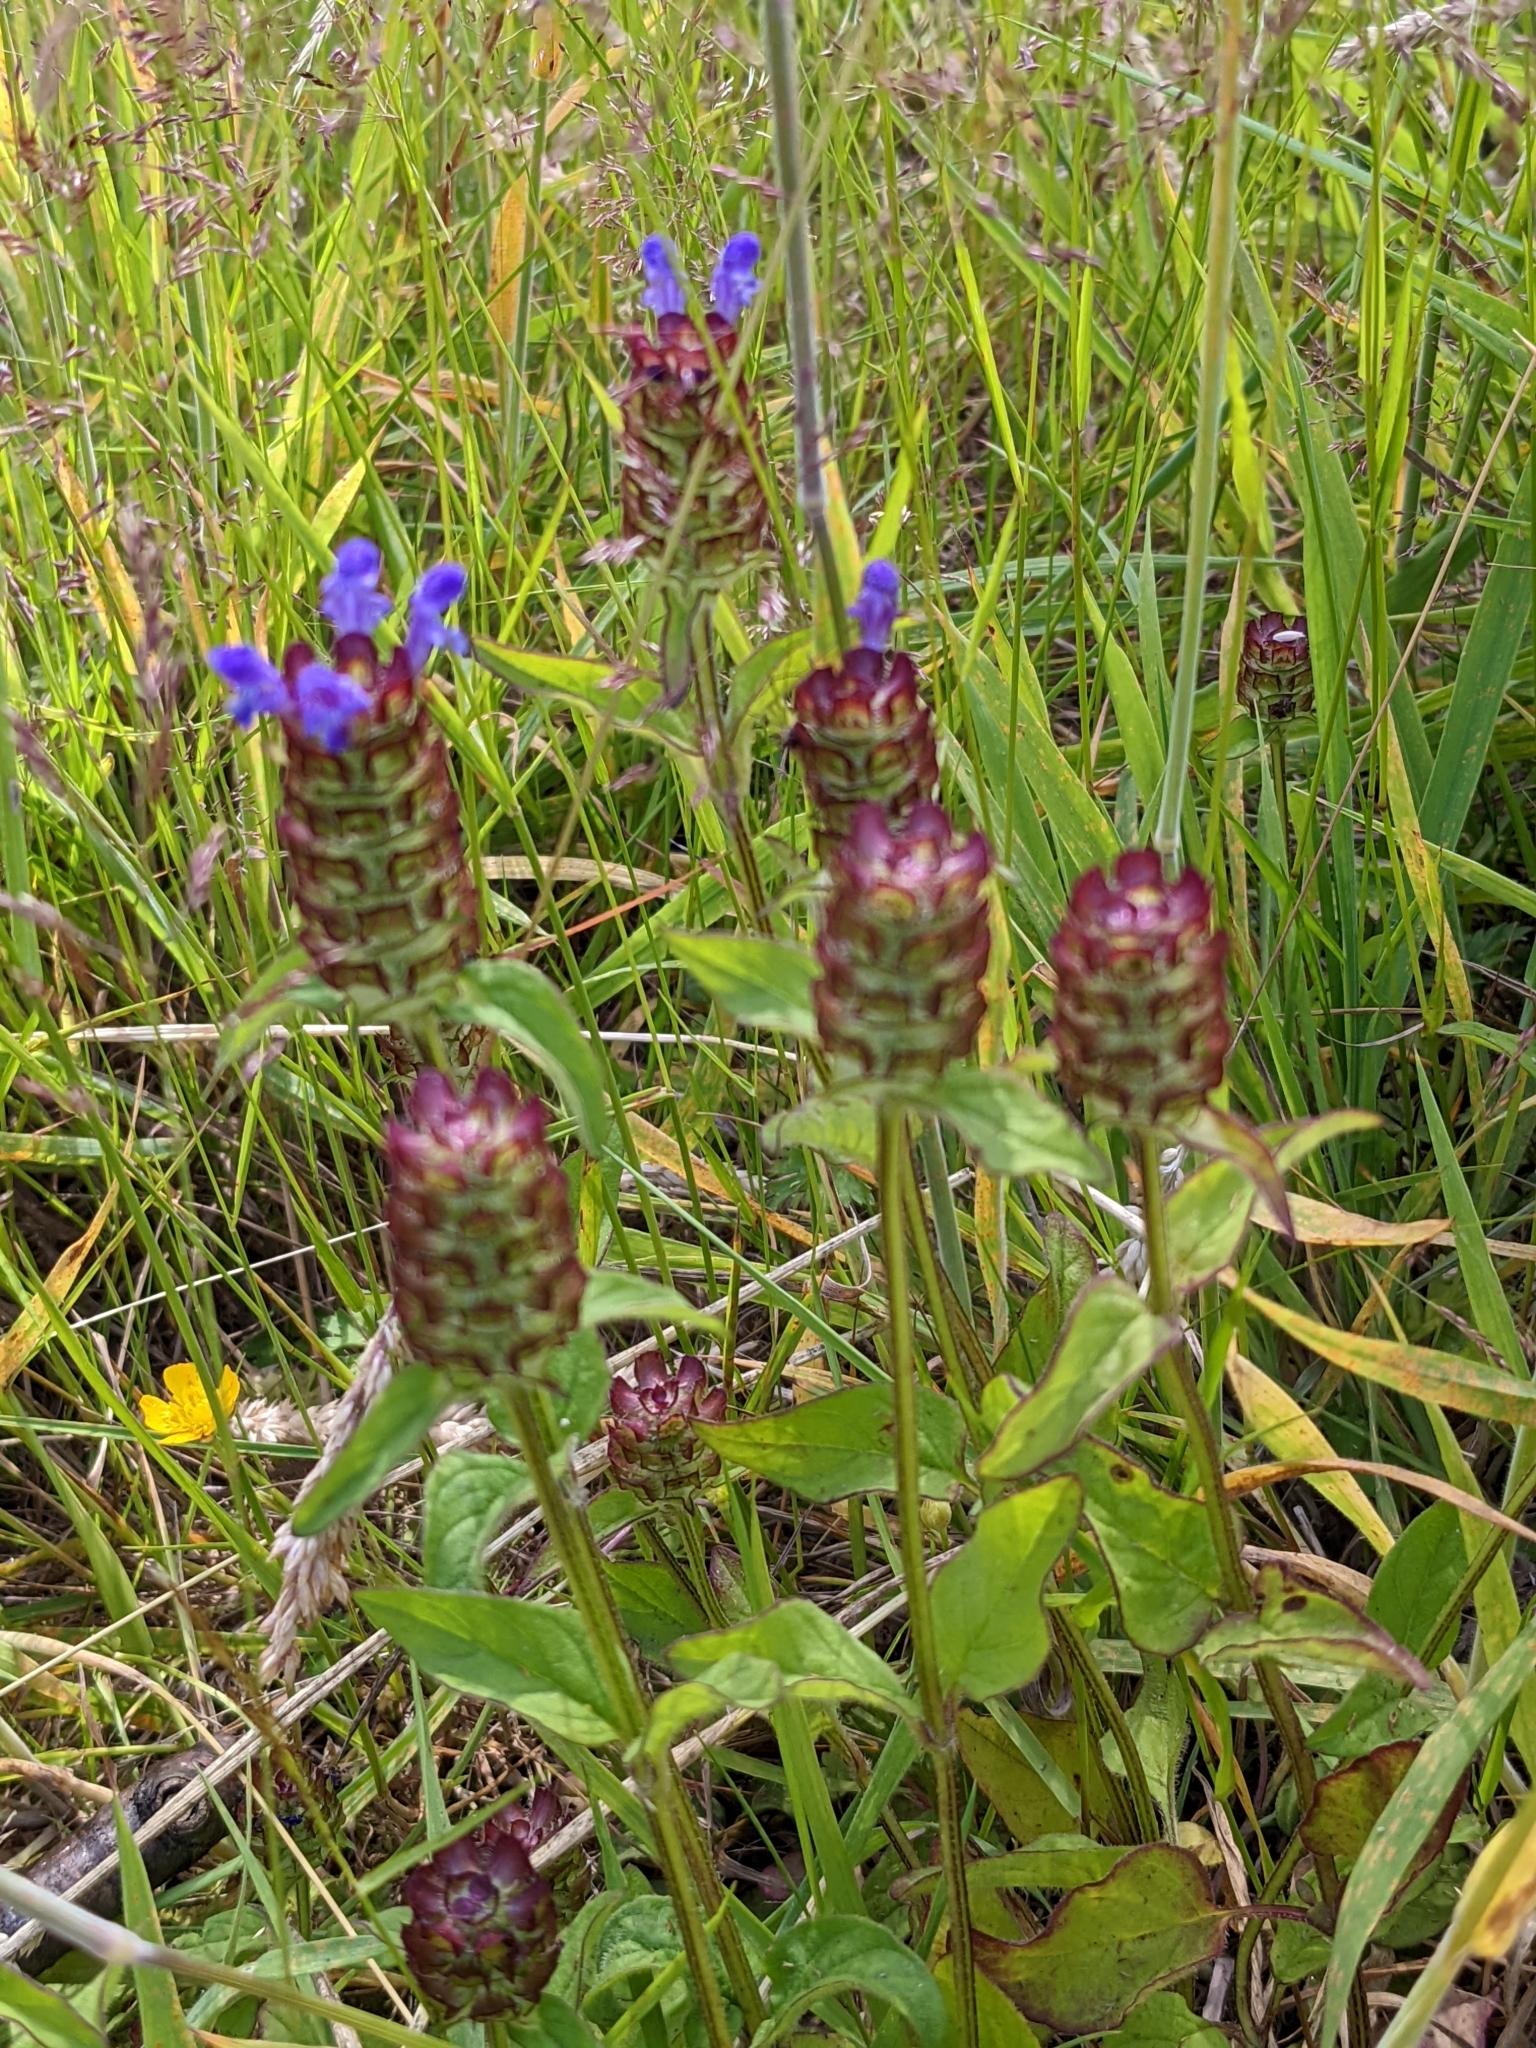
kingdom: Plantae
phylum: Tracheophyta
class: Magnoliopsida
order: Lamiales
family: Lamiaceae
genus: Prunella
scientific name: Prunella vulgaris
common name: Heal-all
